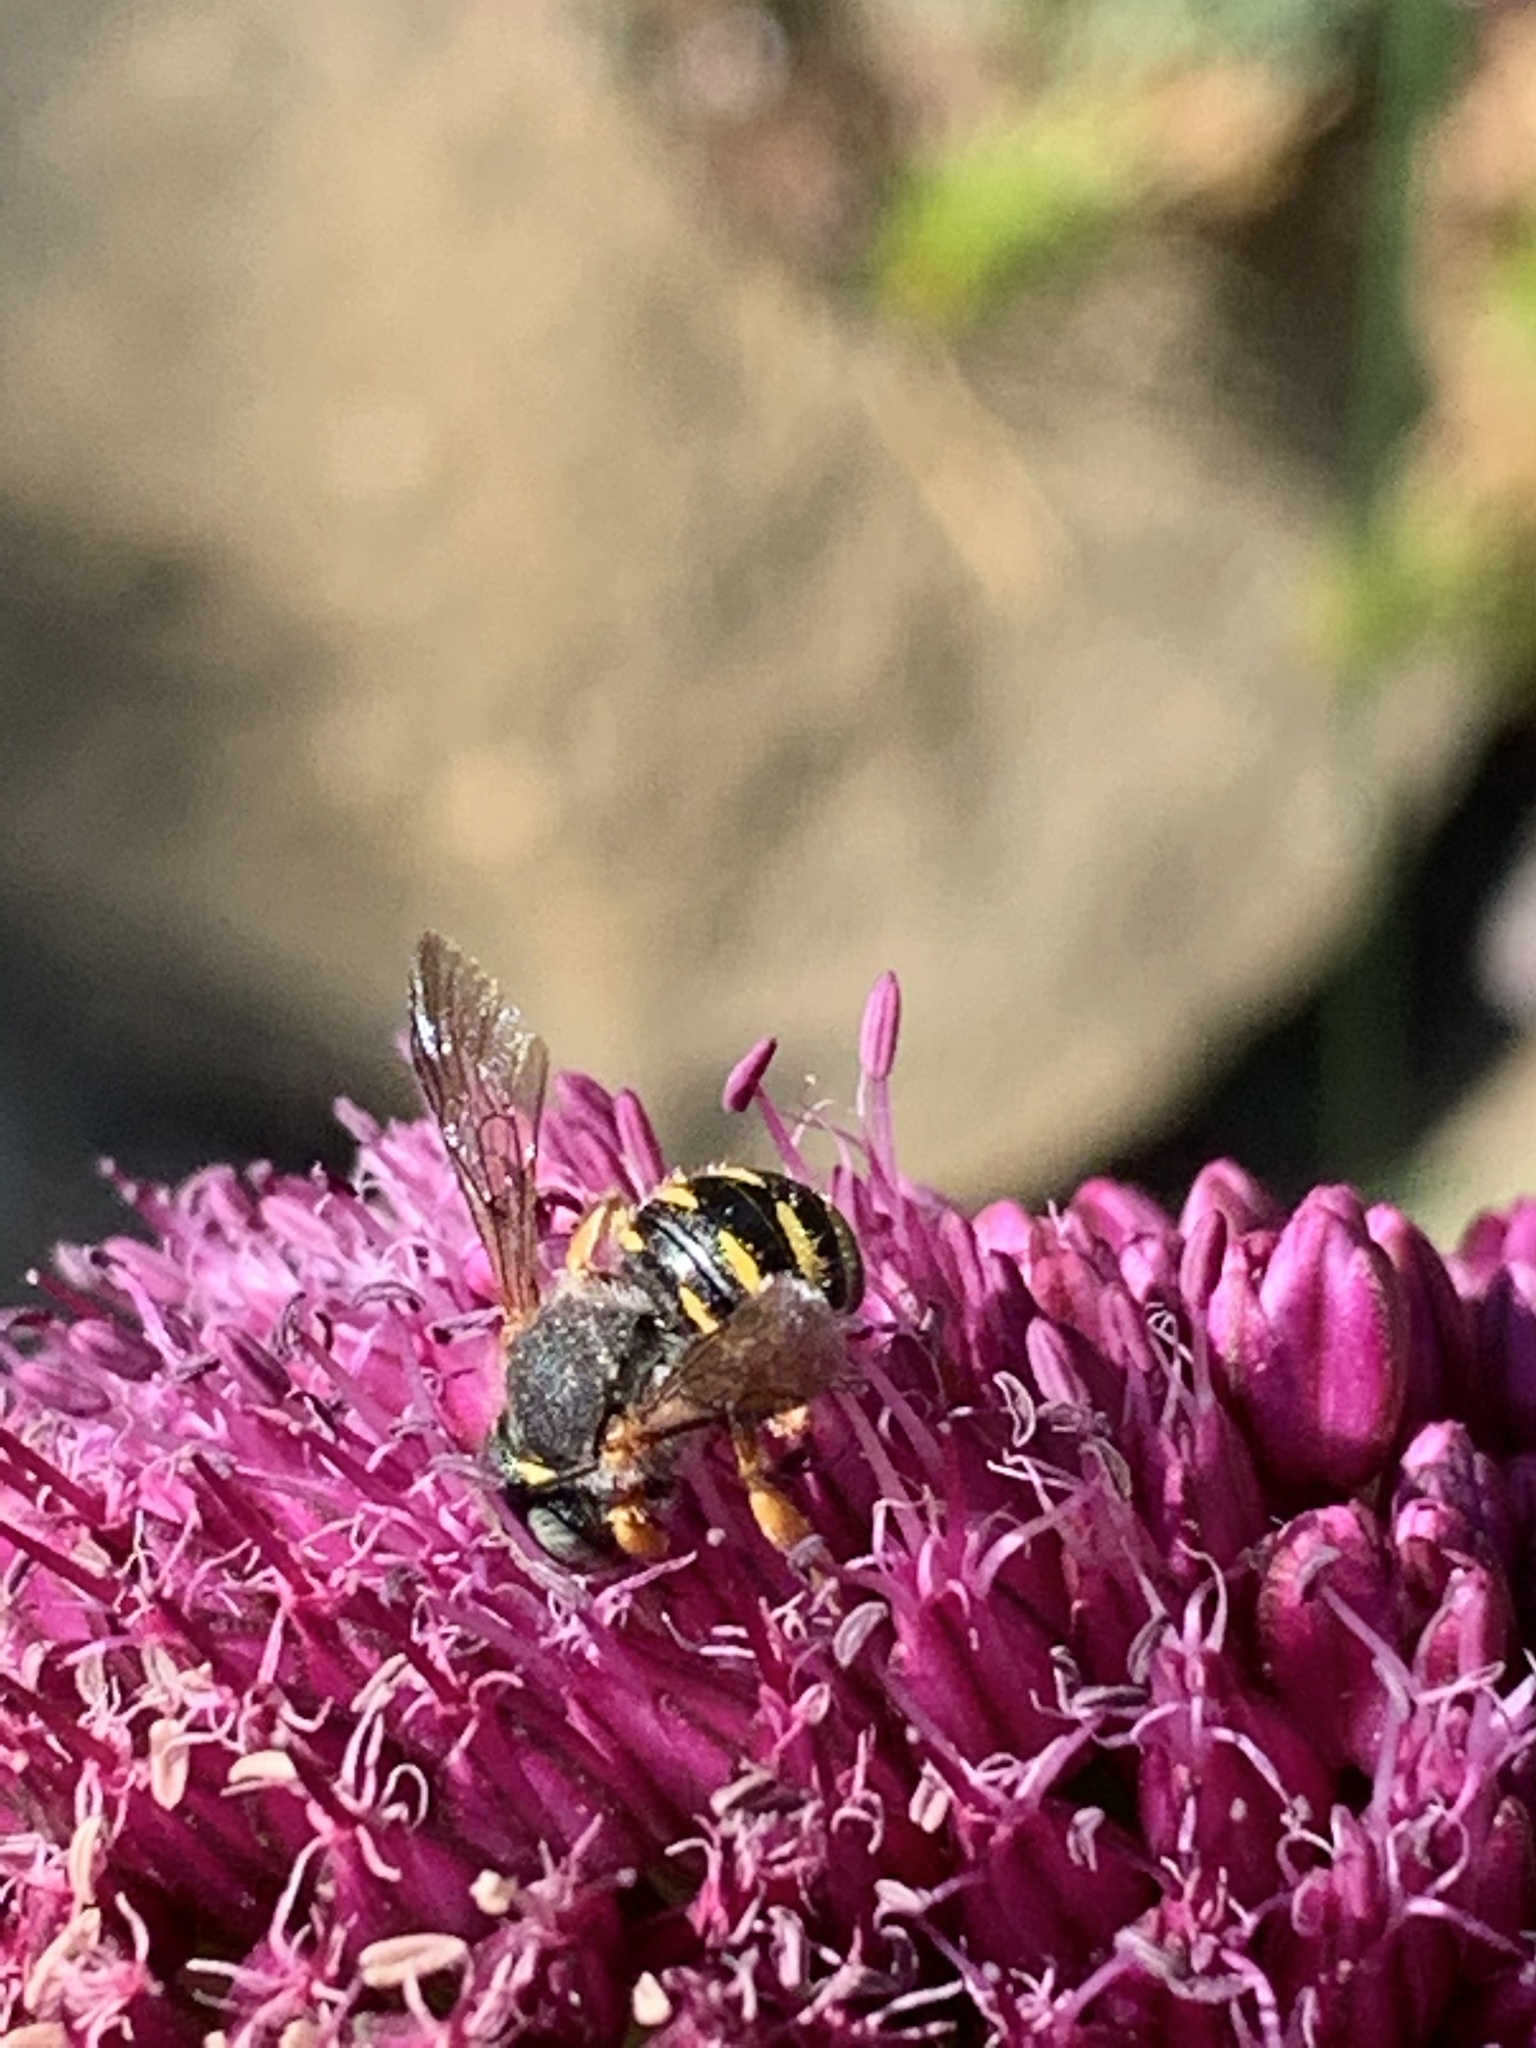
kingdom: Animalia
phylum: Arthropoda
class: Insecta
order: Hymenoptera
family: Megachilidae
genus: Anthidium
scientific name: Anthidium oblongatum
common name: Oblong wool carder bee
